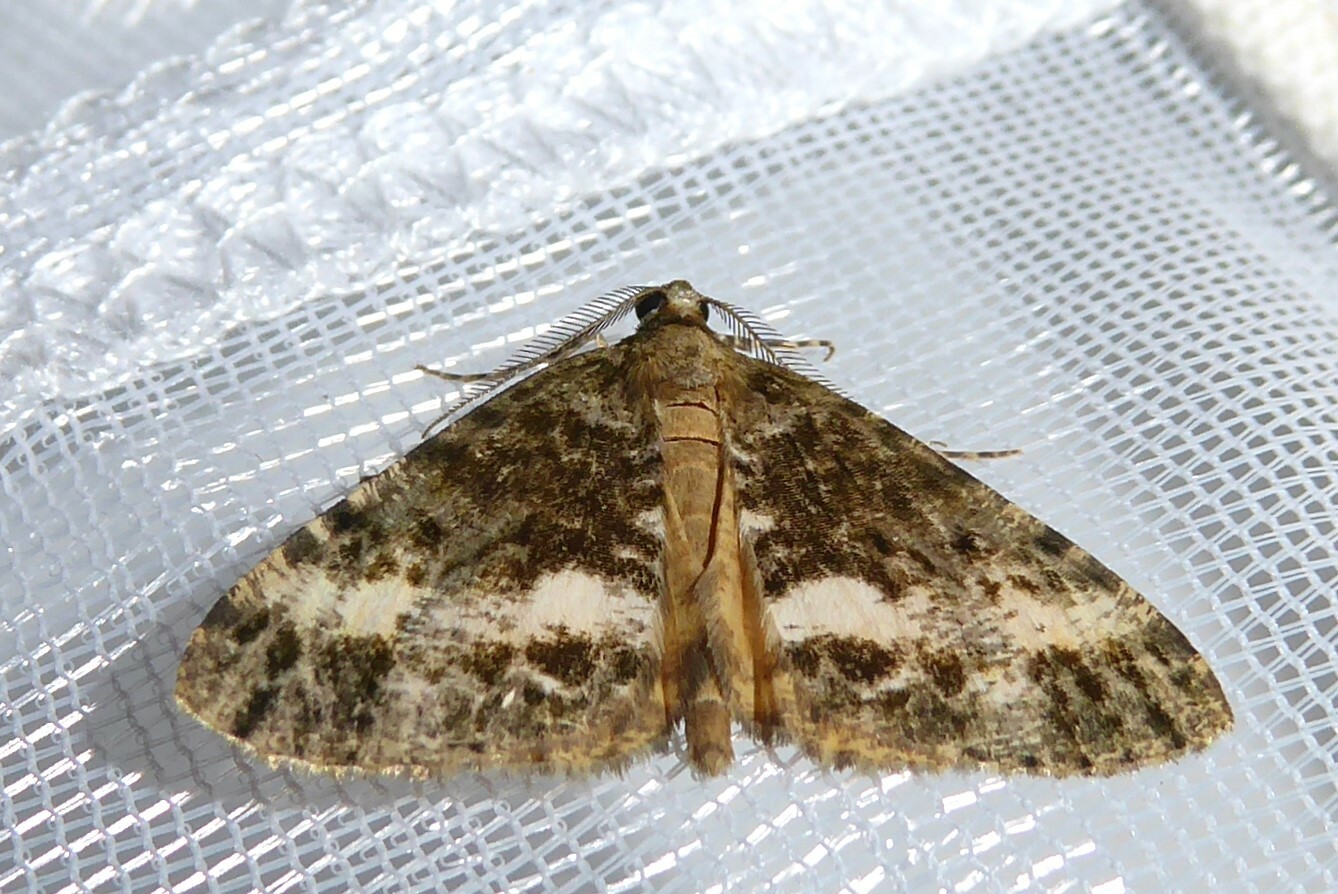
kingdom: Animalia
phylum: Arthropoda
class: Insecta
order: Lepidoptera
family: Geometridae
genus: Pseudocoremia
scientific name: Pseudocoremia lactiflua
